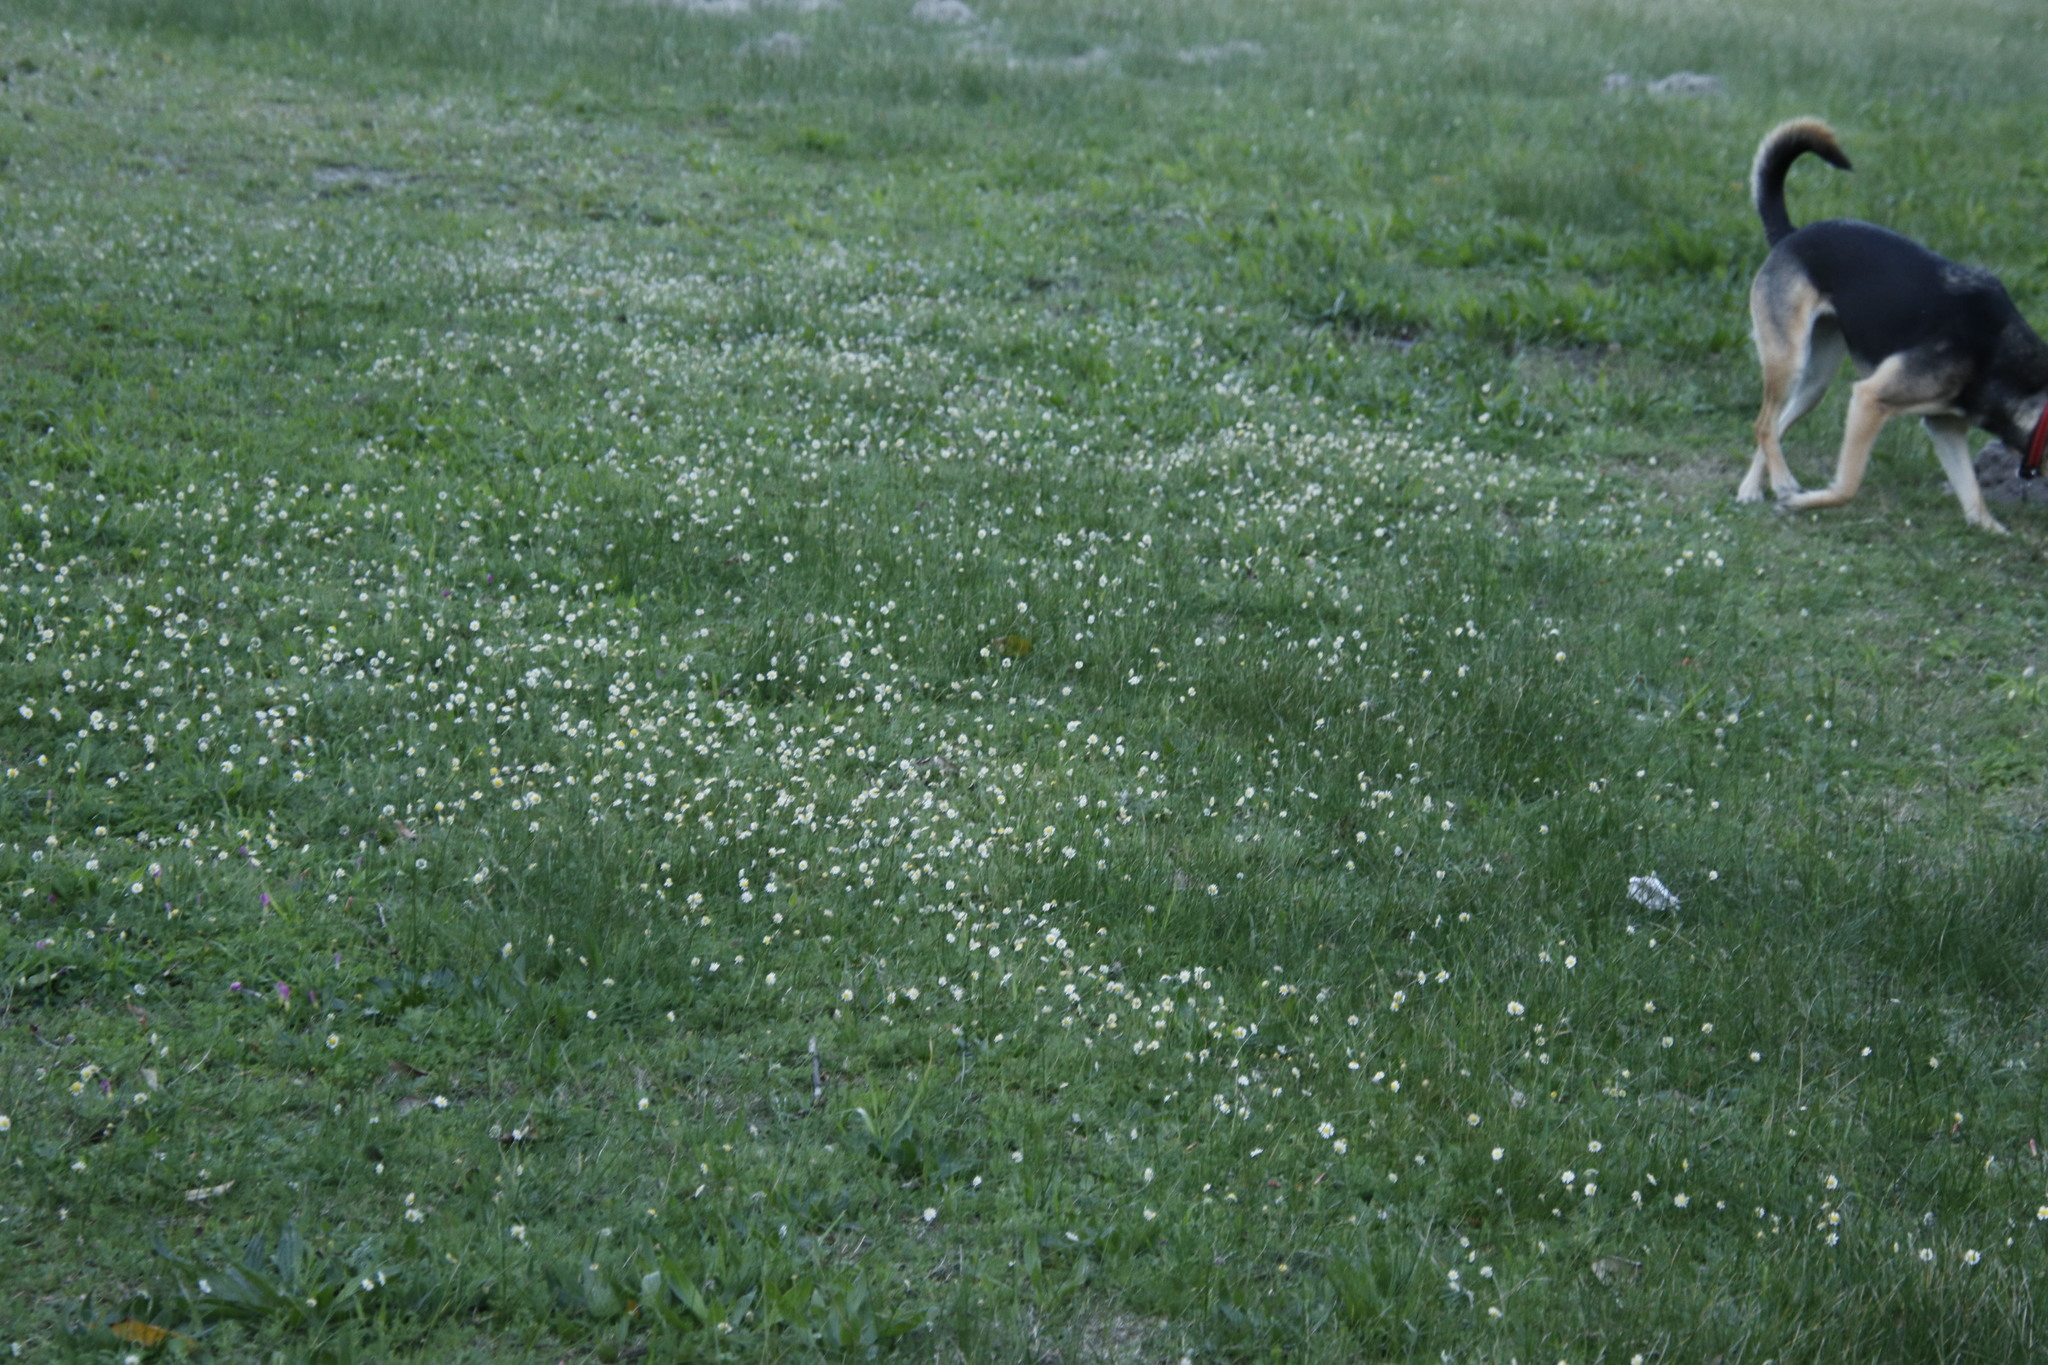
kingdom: Plantae
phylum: Tracheophyta
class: Magnoliopsida
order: Asterales
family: Asteraceae
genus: Cotula
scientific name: Cotula turbinata
